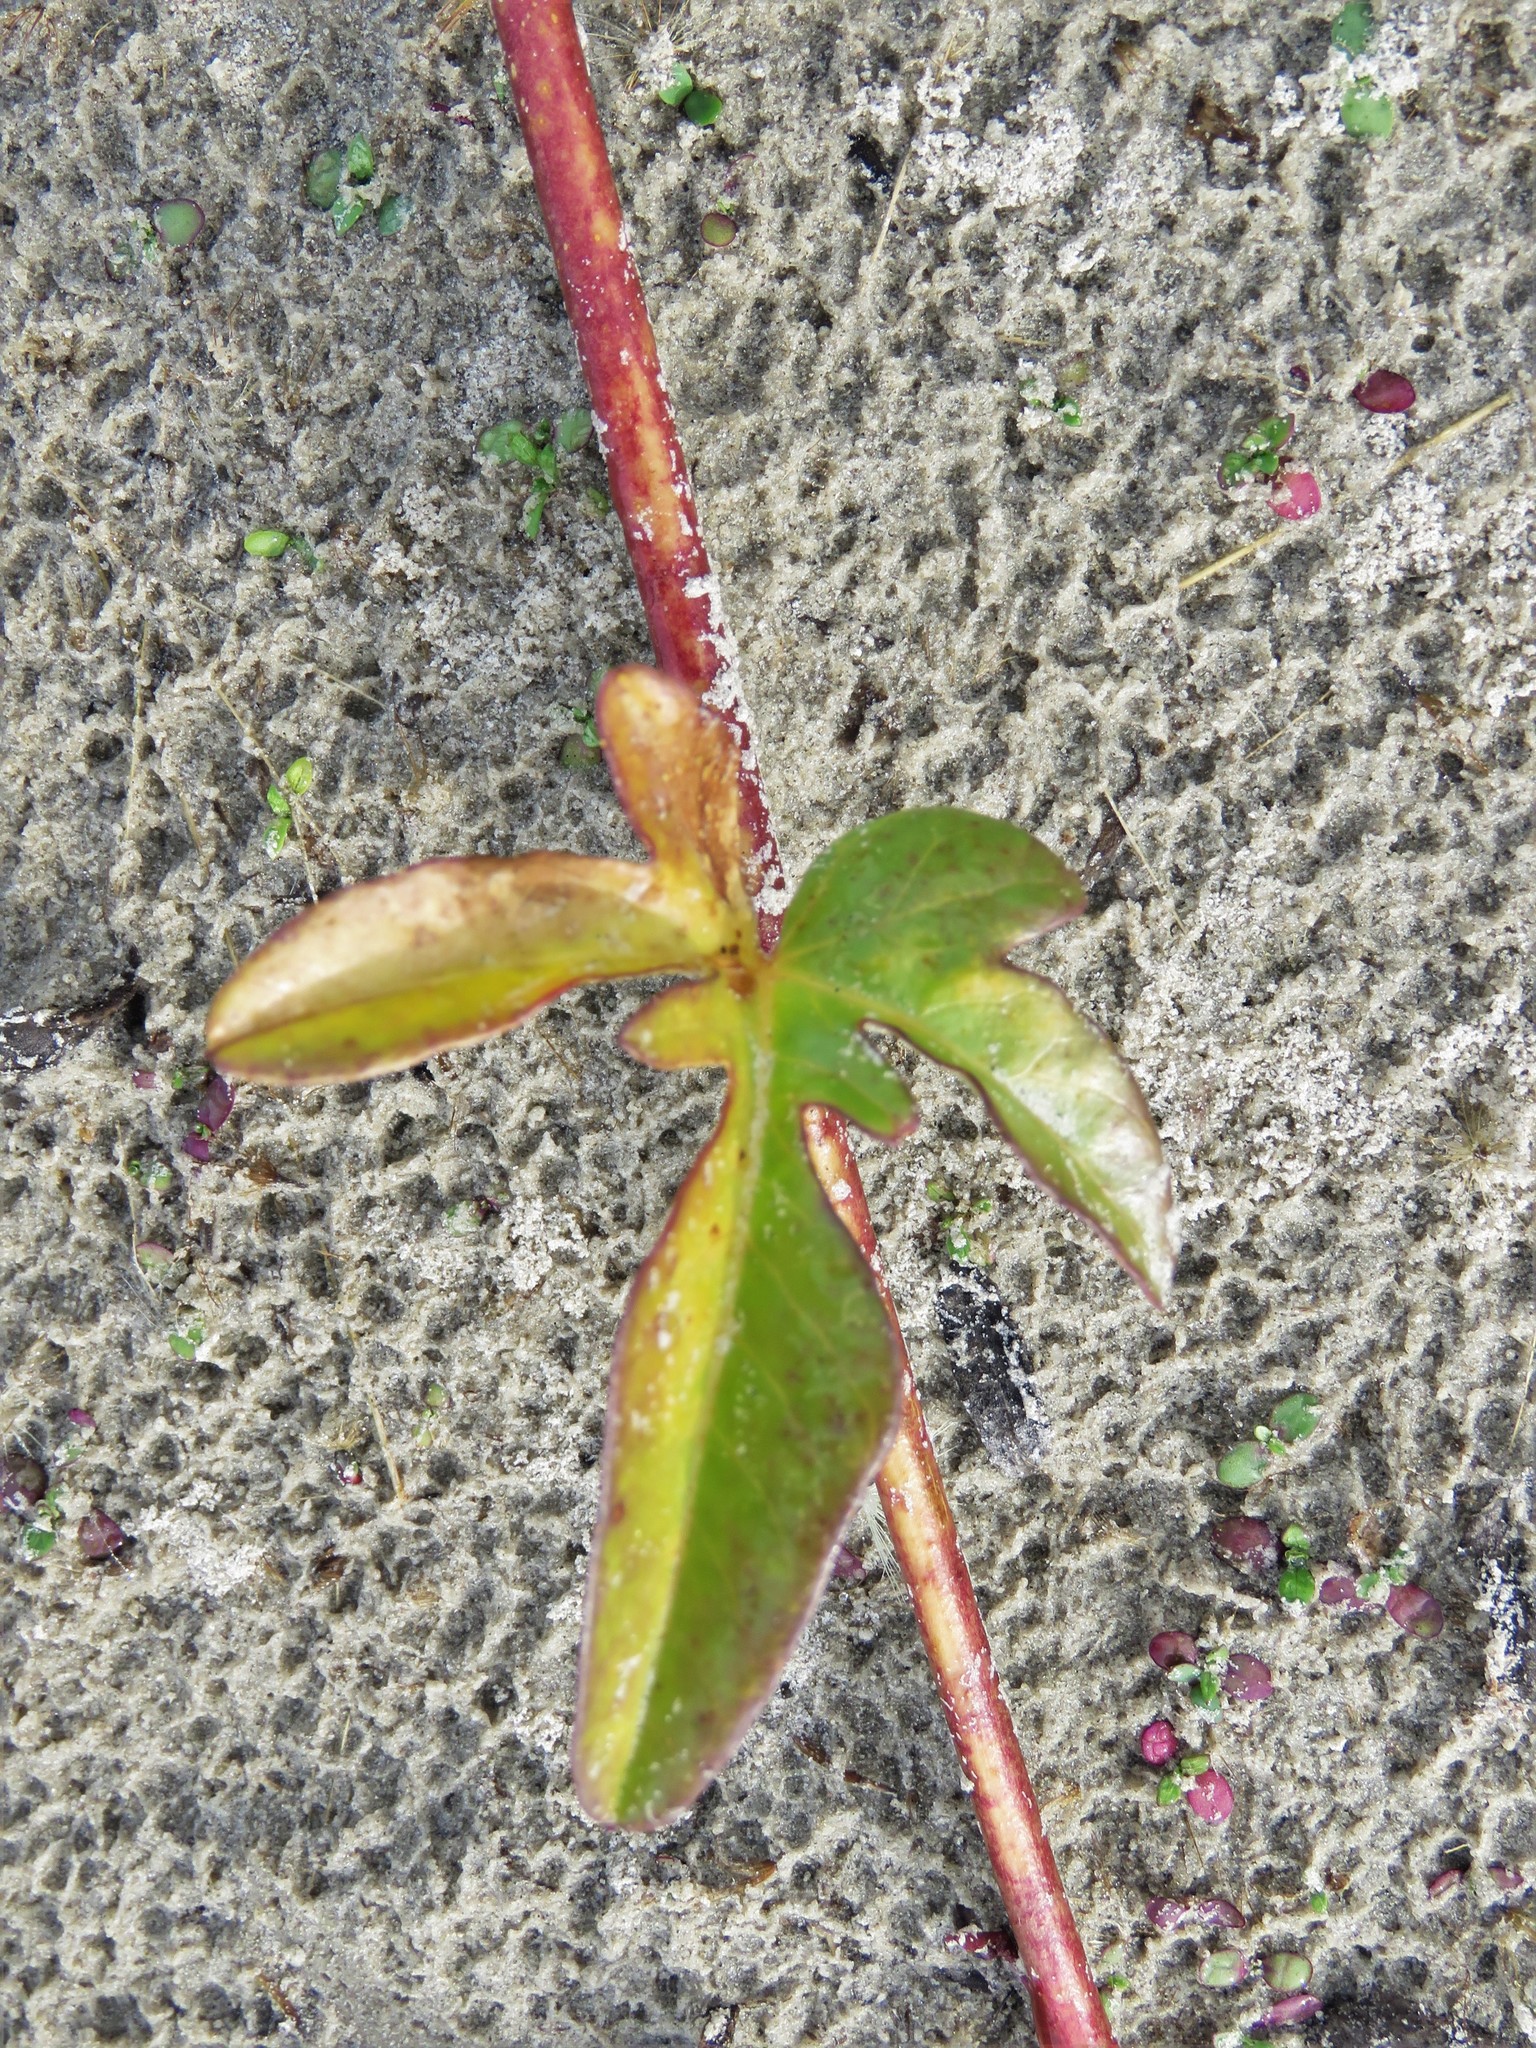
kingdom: Plantae
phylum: Tracheophyta
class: Magnoliopsida
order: Solanales
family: Convolvulaceae
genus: Ipomoea
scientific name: Ipomoea imperati
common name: Fiddle-leaf morning-glory
